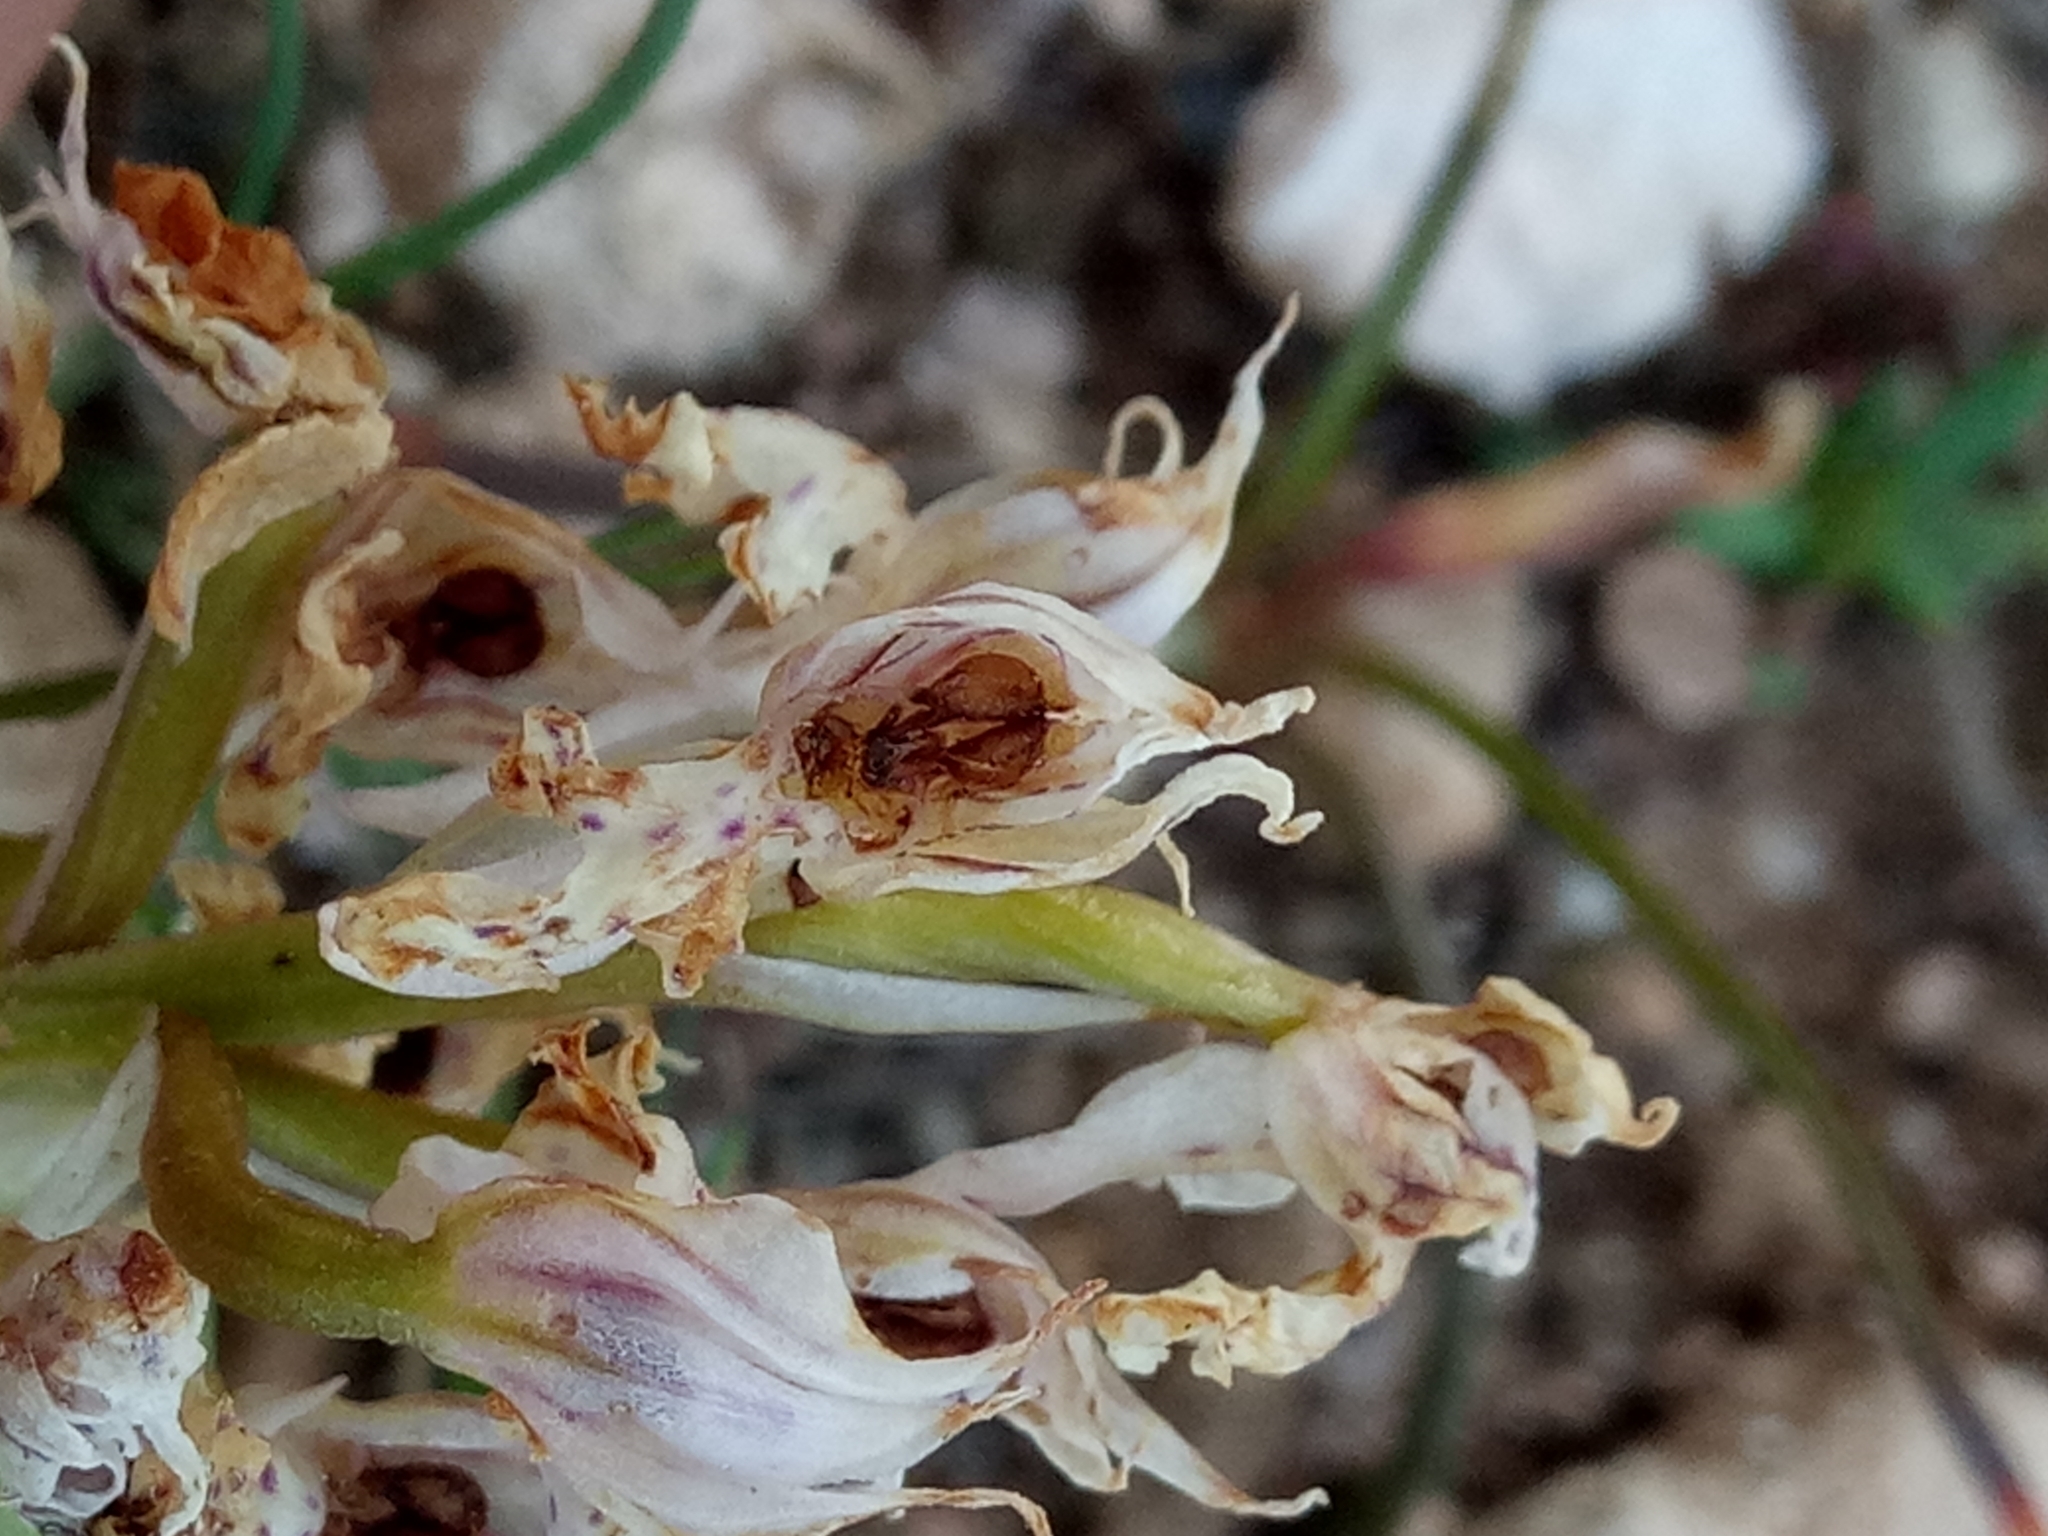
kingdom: Plantae
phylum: Tracheophyta
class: Liliopsida
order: Asparagales
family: Orchidaceae
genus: Neotinea
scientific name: Neotinea lactea
